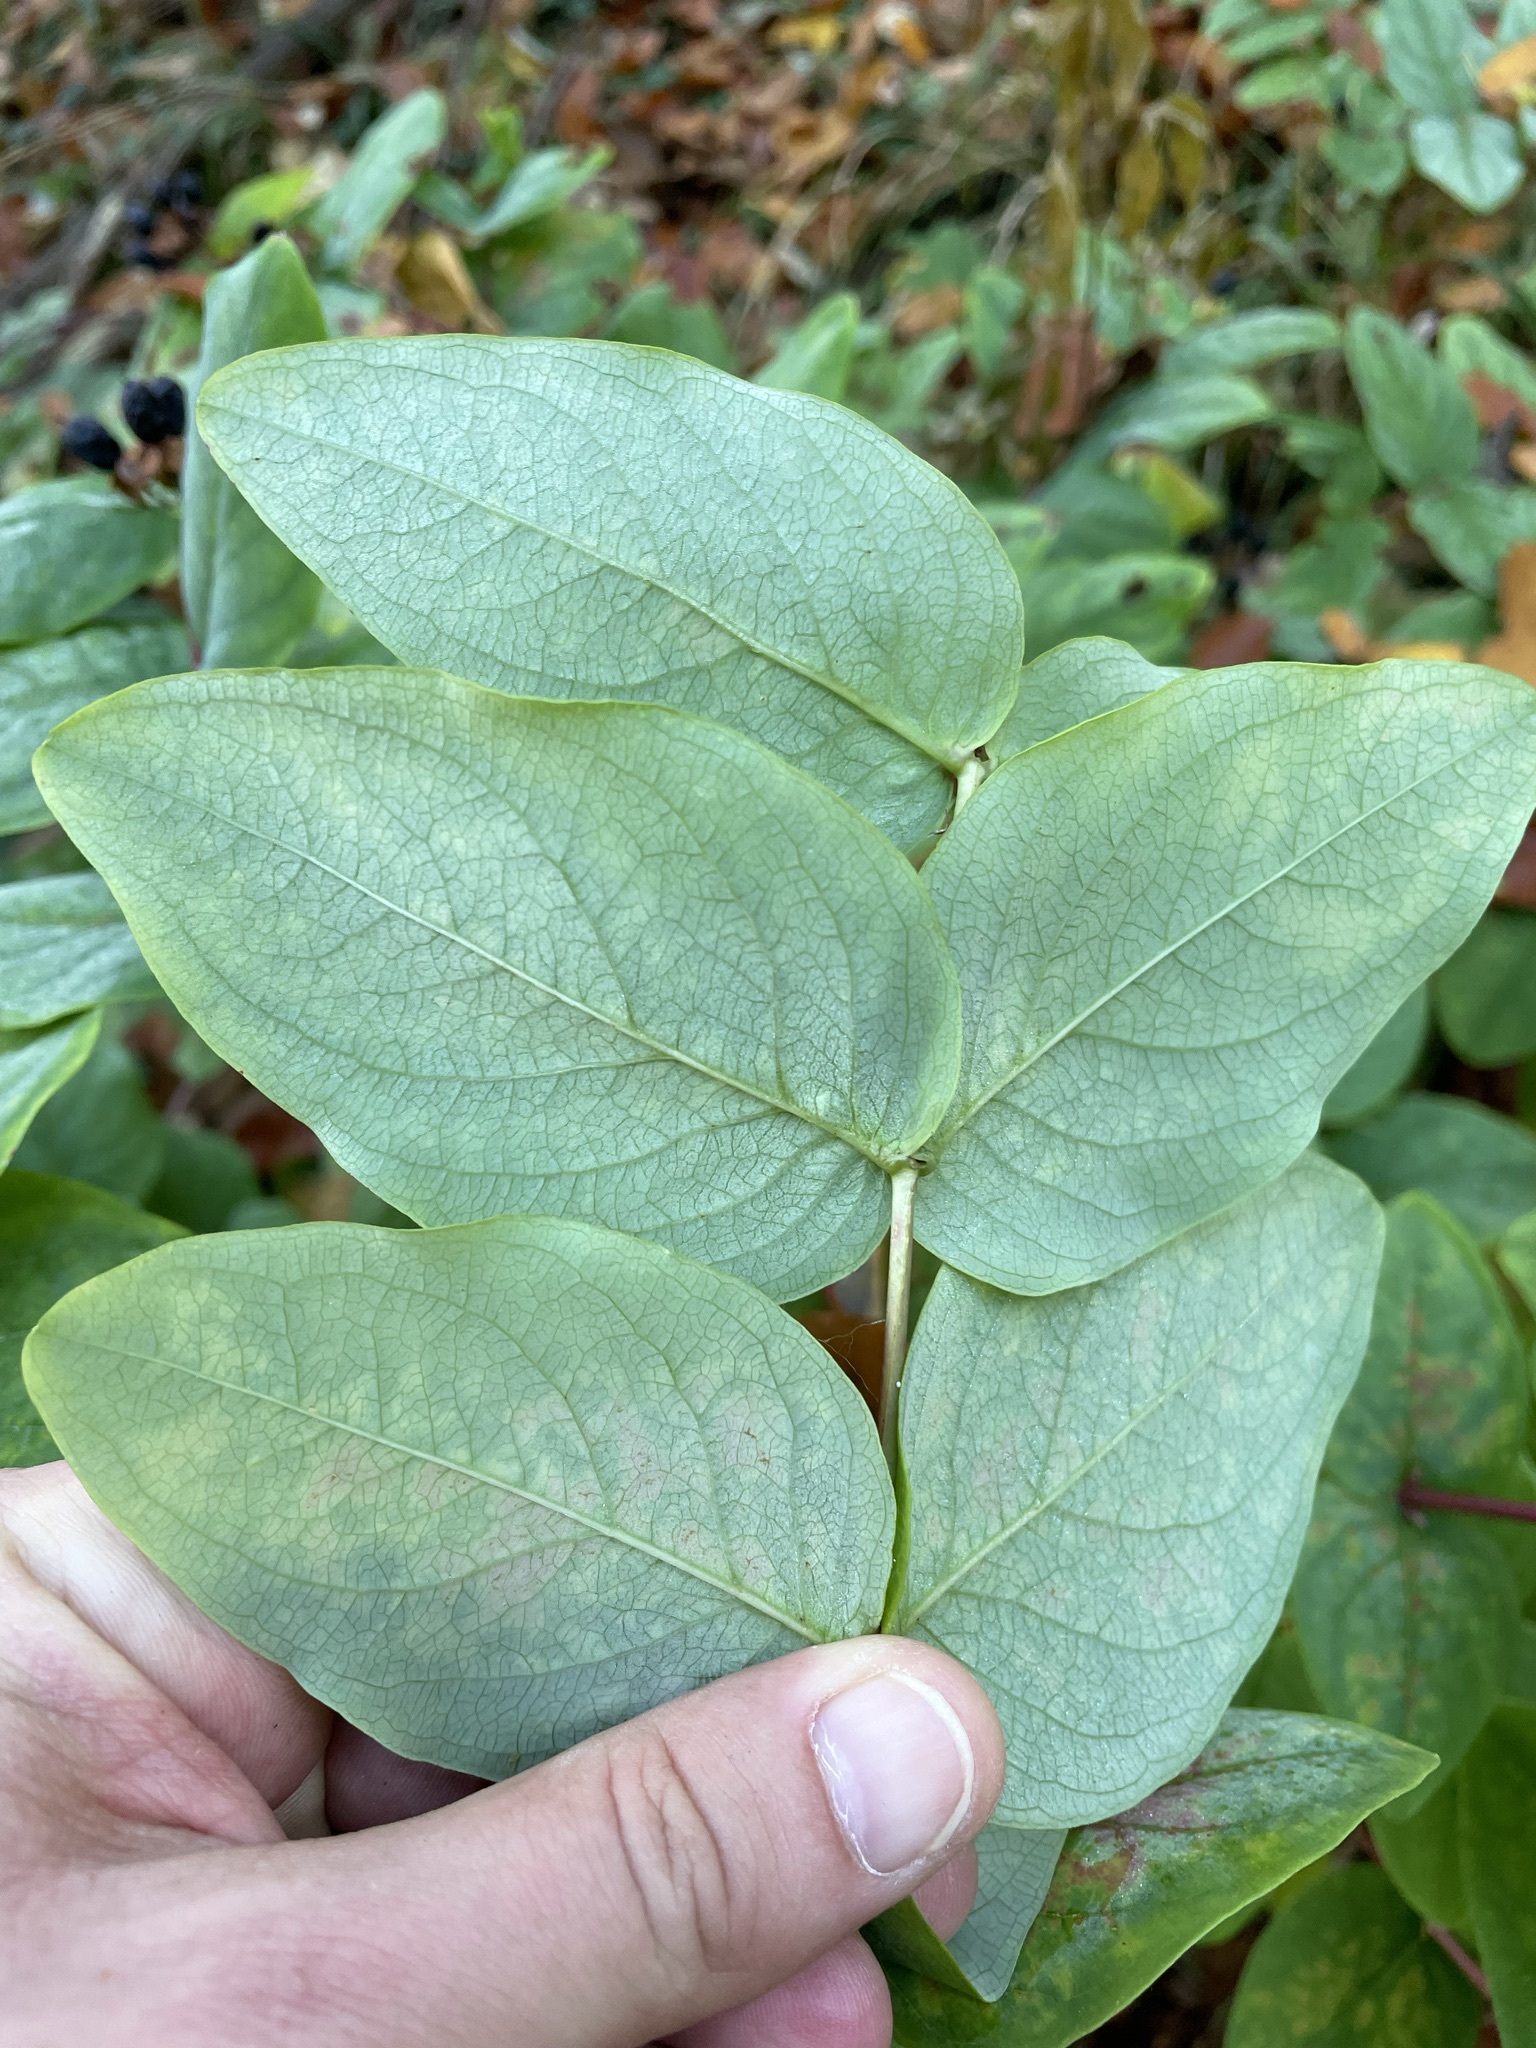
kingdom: Plantae
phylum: Tracheophyta
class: Magnoliopsida
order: Malpighiales
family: Hypericaceae
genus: Hypericum
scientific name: Hypericum androsaemum
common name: Sweet-amber
